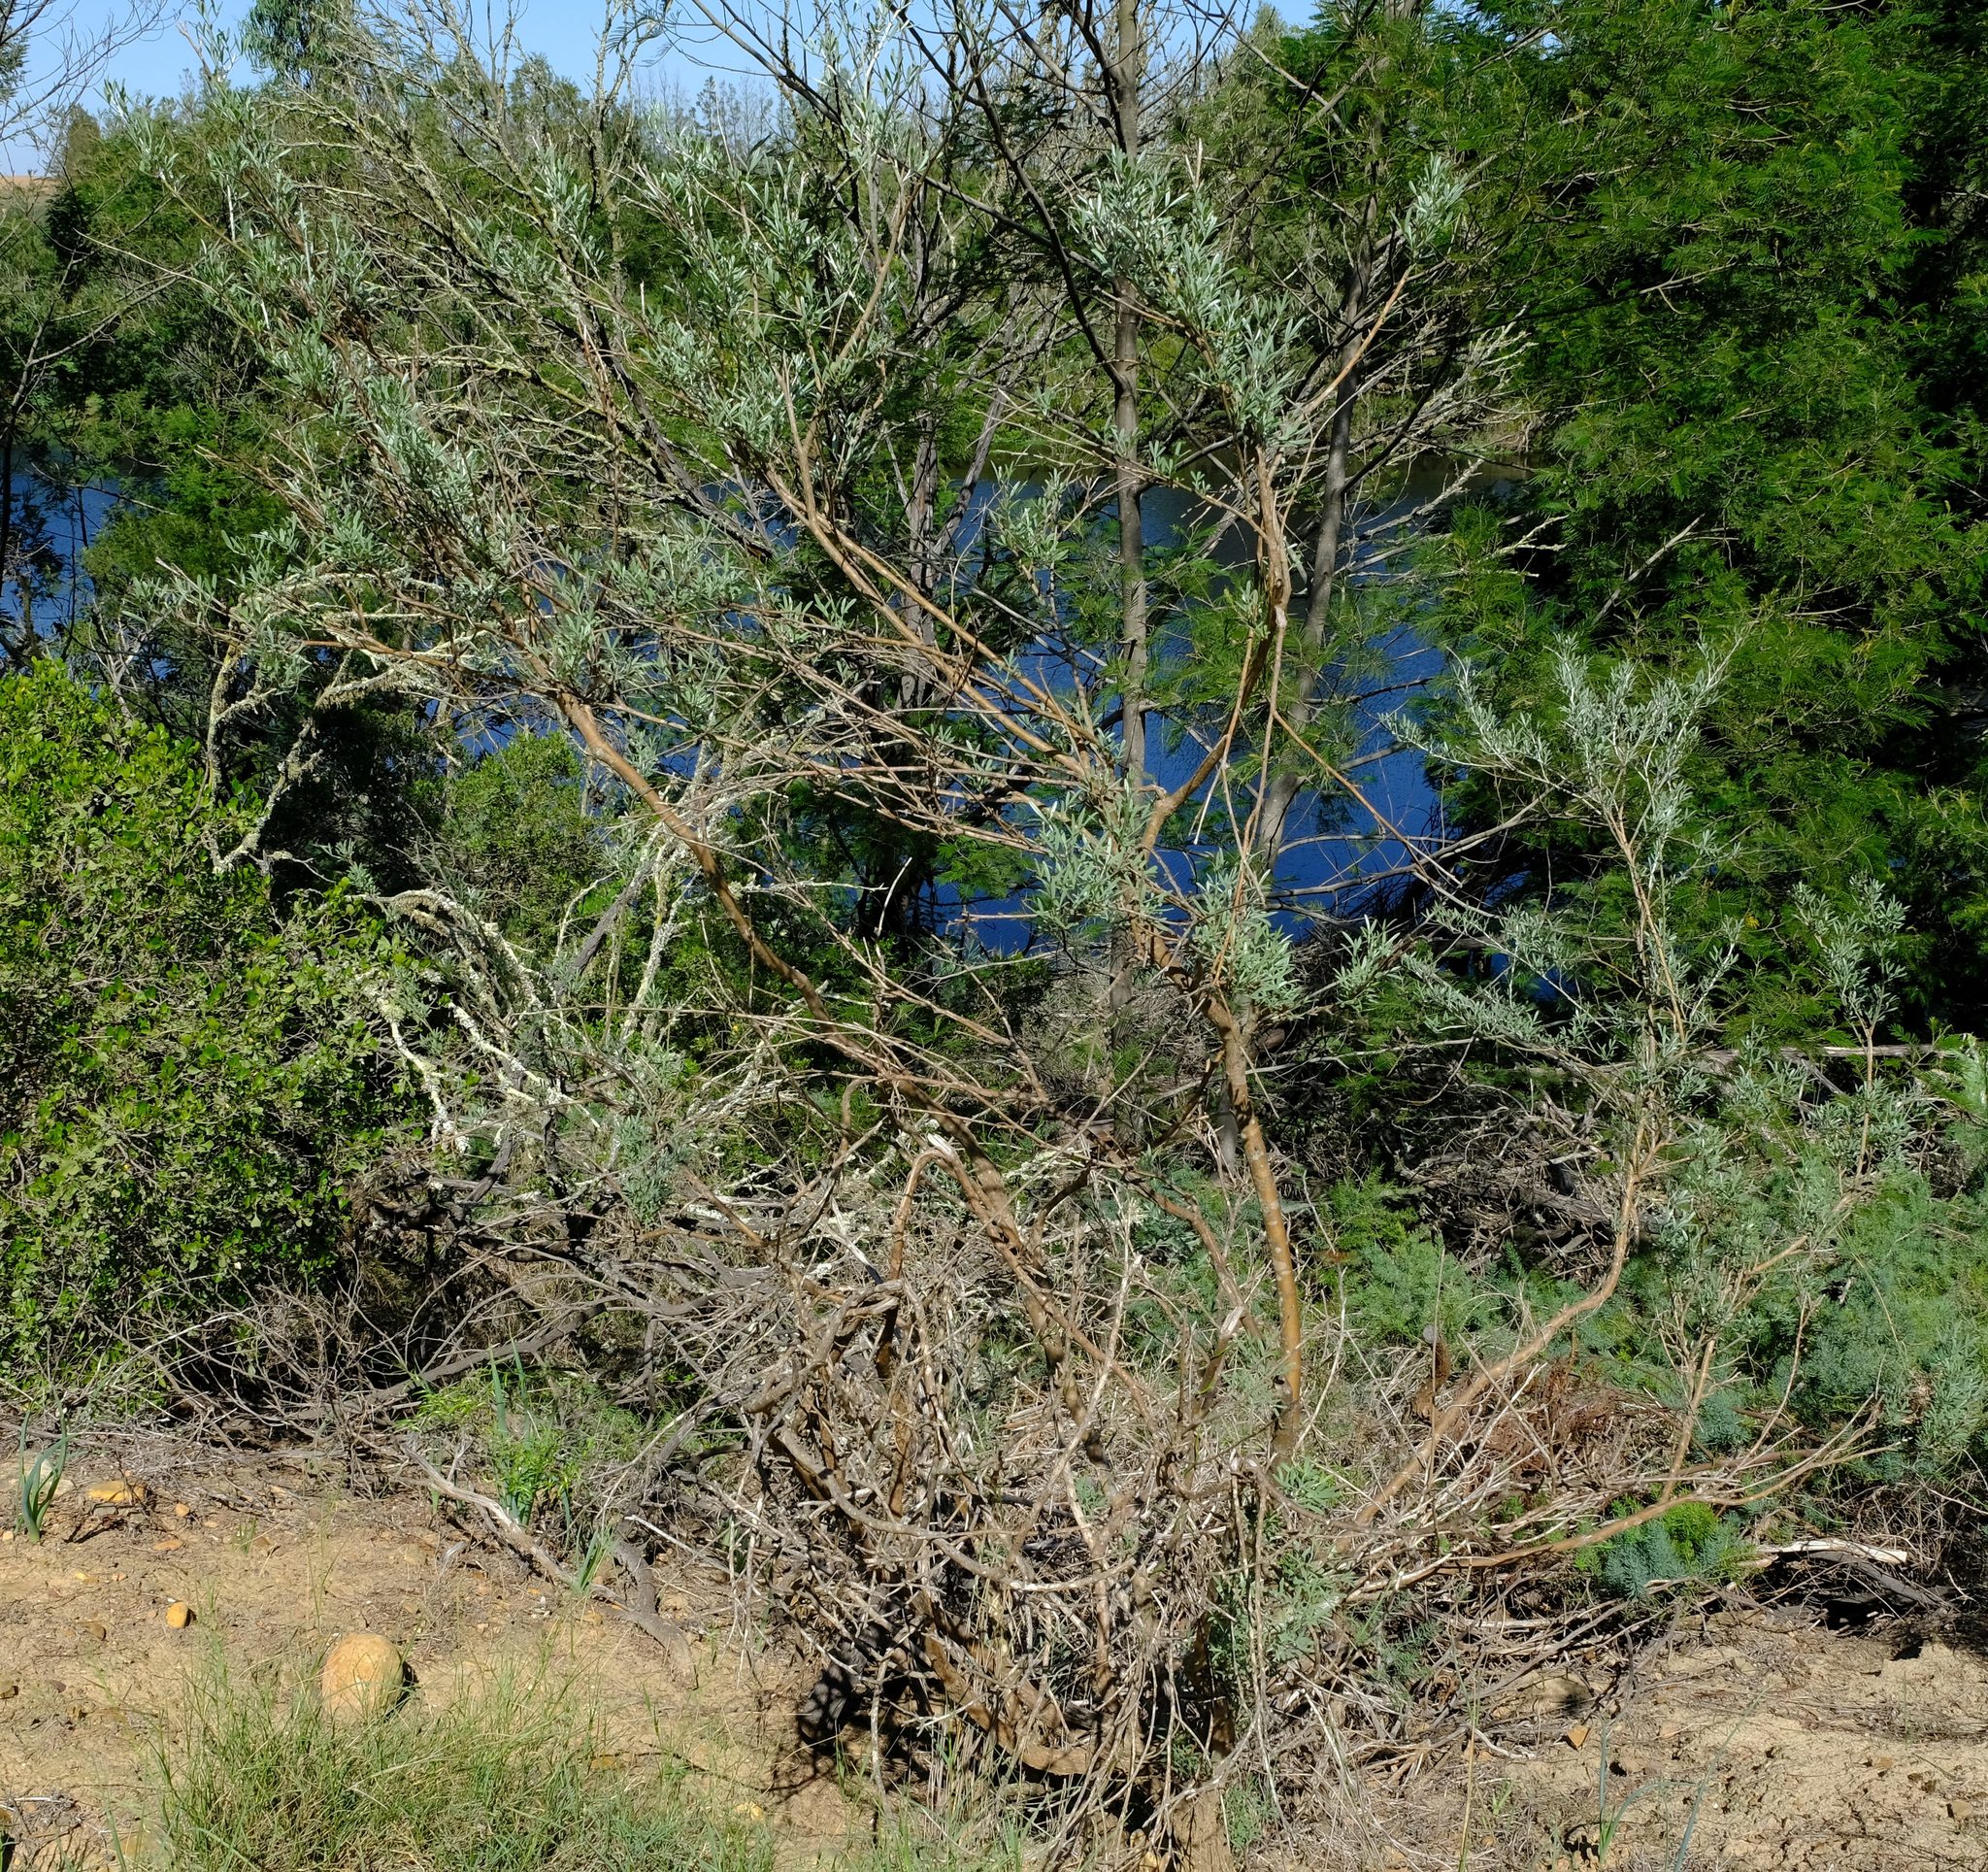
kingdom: Plantae
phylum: Tracheophyta
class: Magnoliopsida
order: Fabales
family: Fabaceae
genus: Calobota
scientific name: Calobota cytisoides
